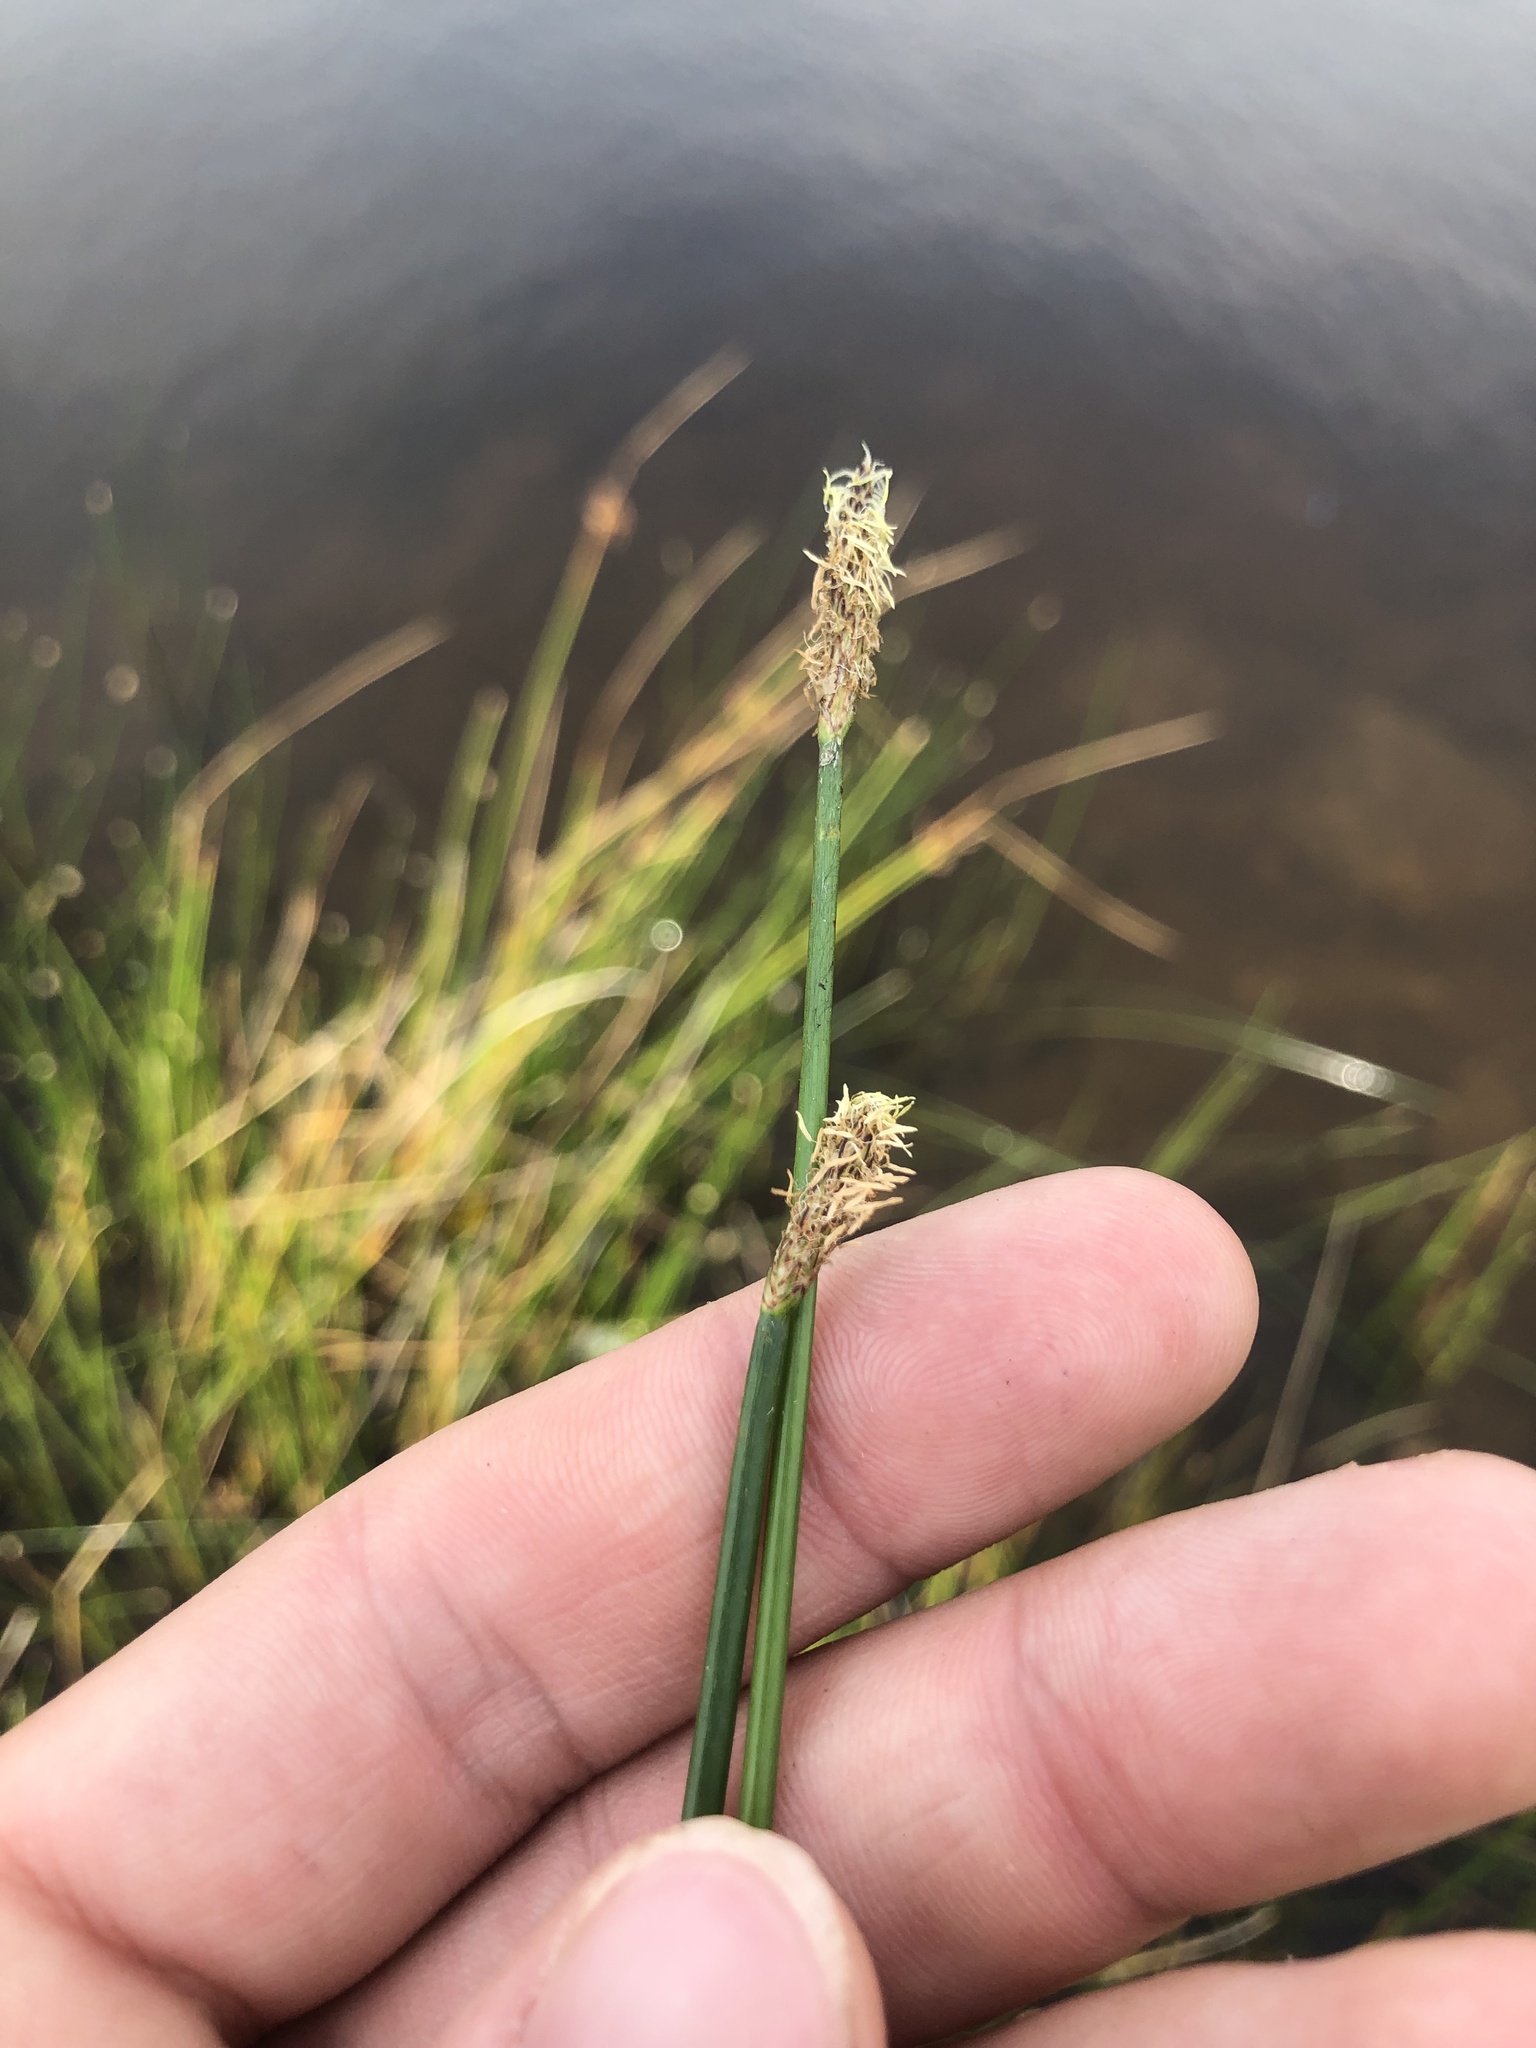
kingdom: Plantae
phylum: Tracheophyta
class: Liliopsida
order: Poales
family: Cyperaceae
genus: Eleocharis
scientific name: Eleocharis palustris
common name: Common spike-rush
